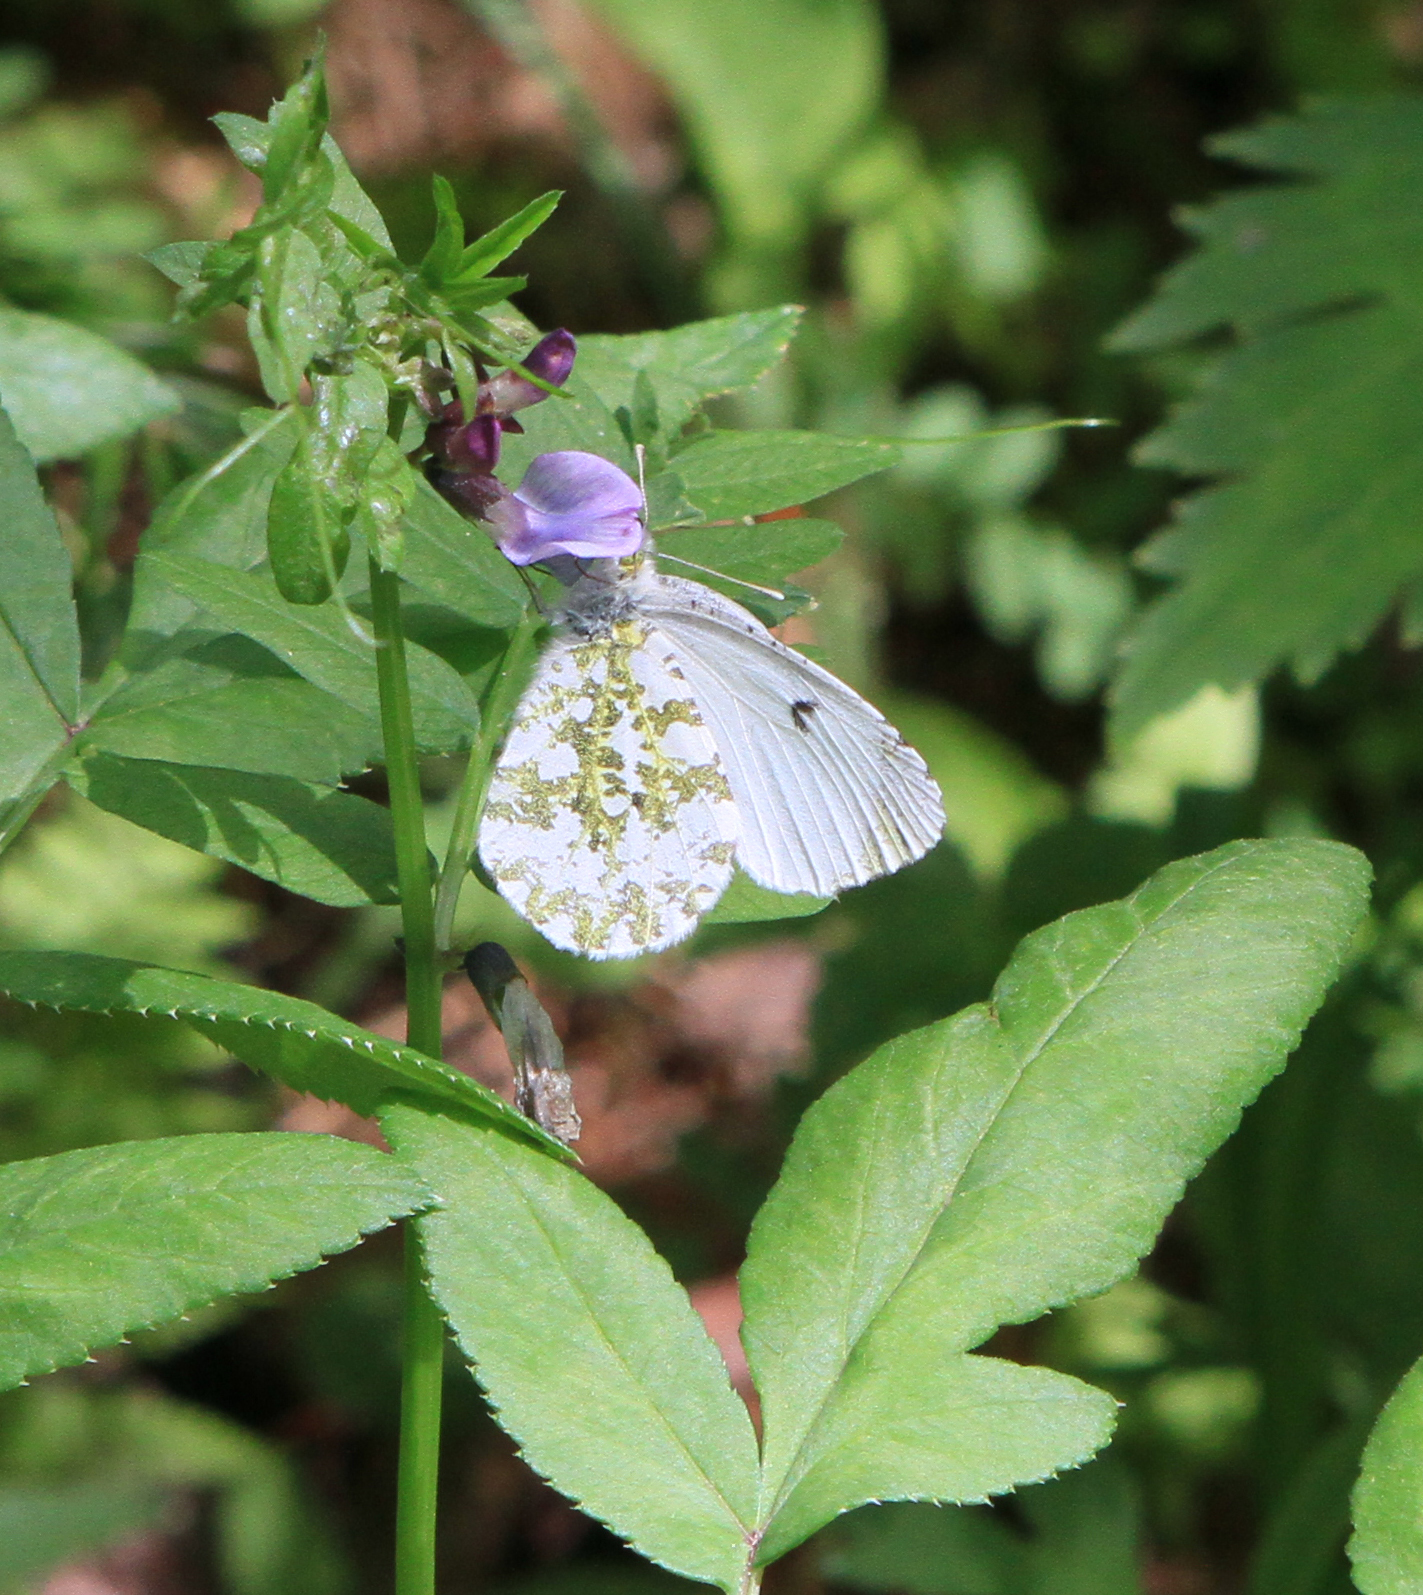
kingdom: Animalia
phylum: Arthropoda
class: Insecta
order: Lepidoptera
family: Pieridae
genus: Anthocharis
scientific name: Anthocharis cardamines
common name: Orange-tip
